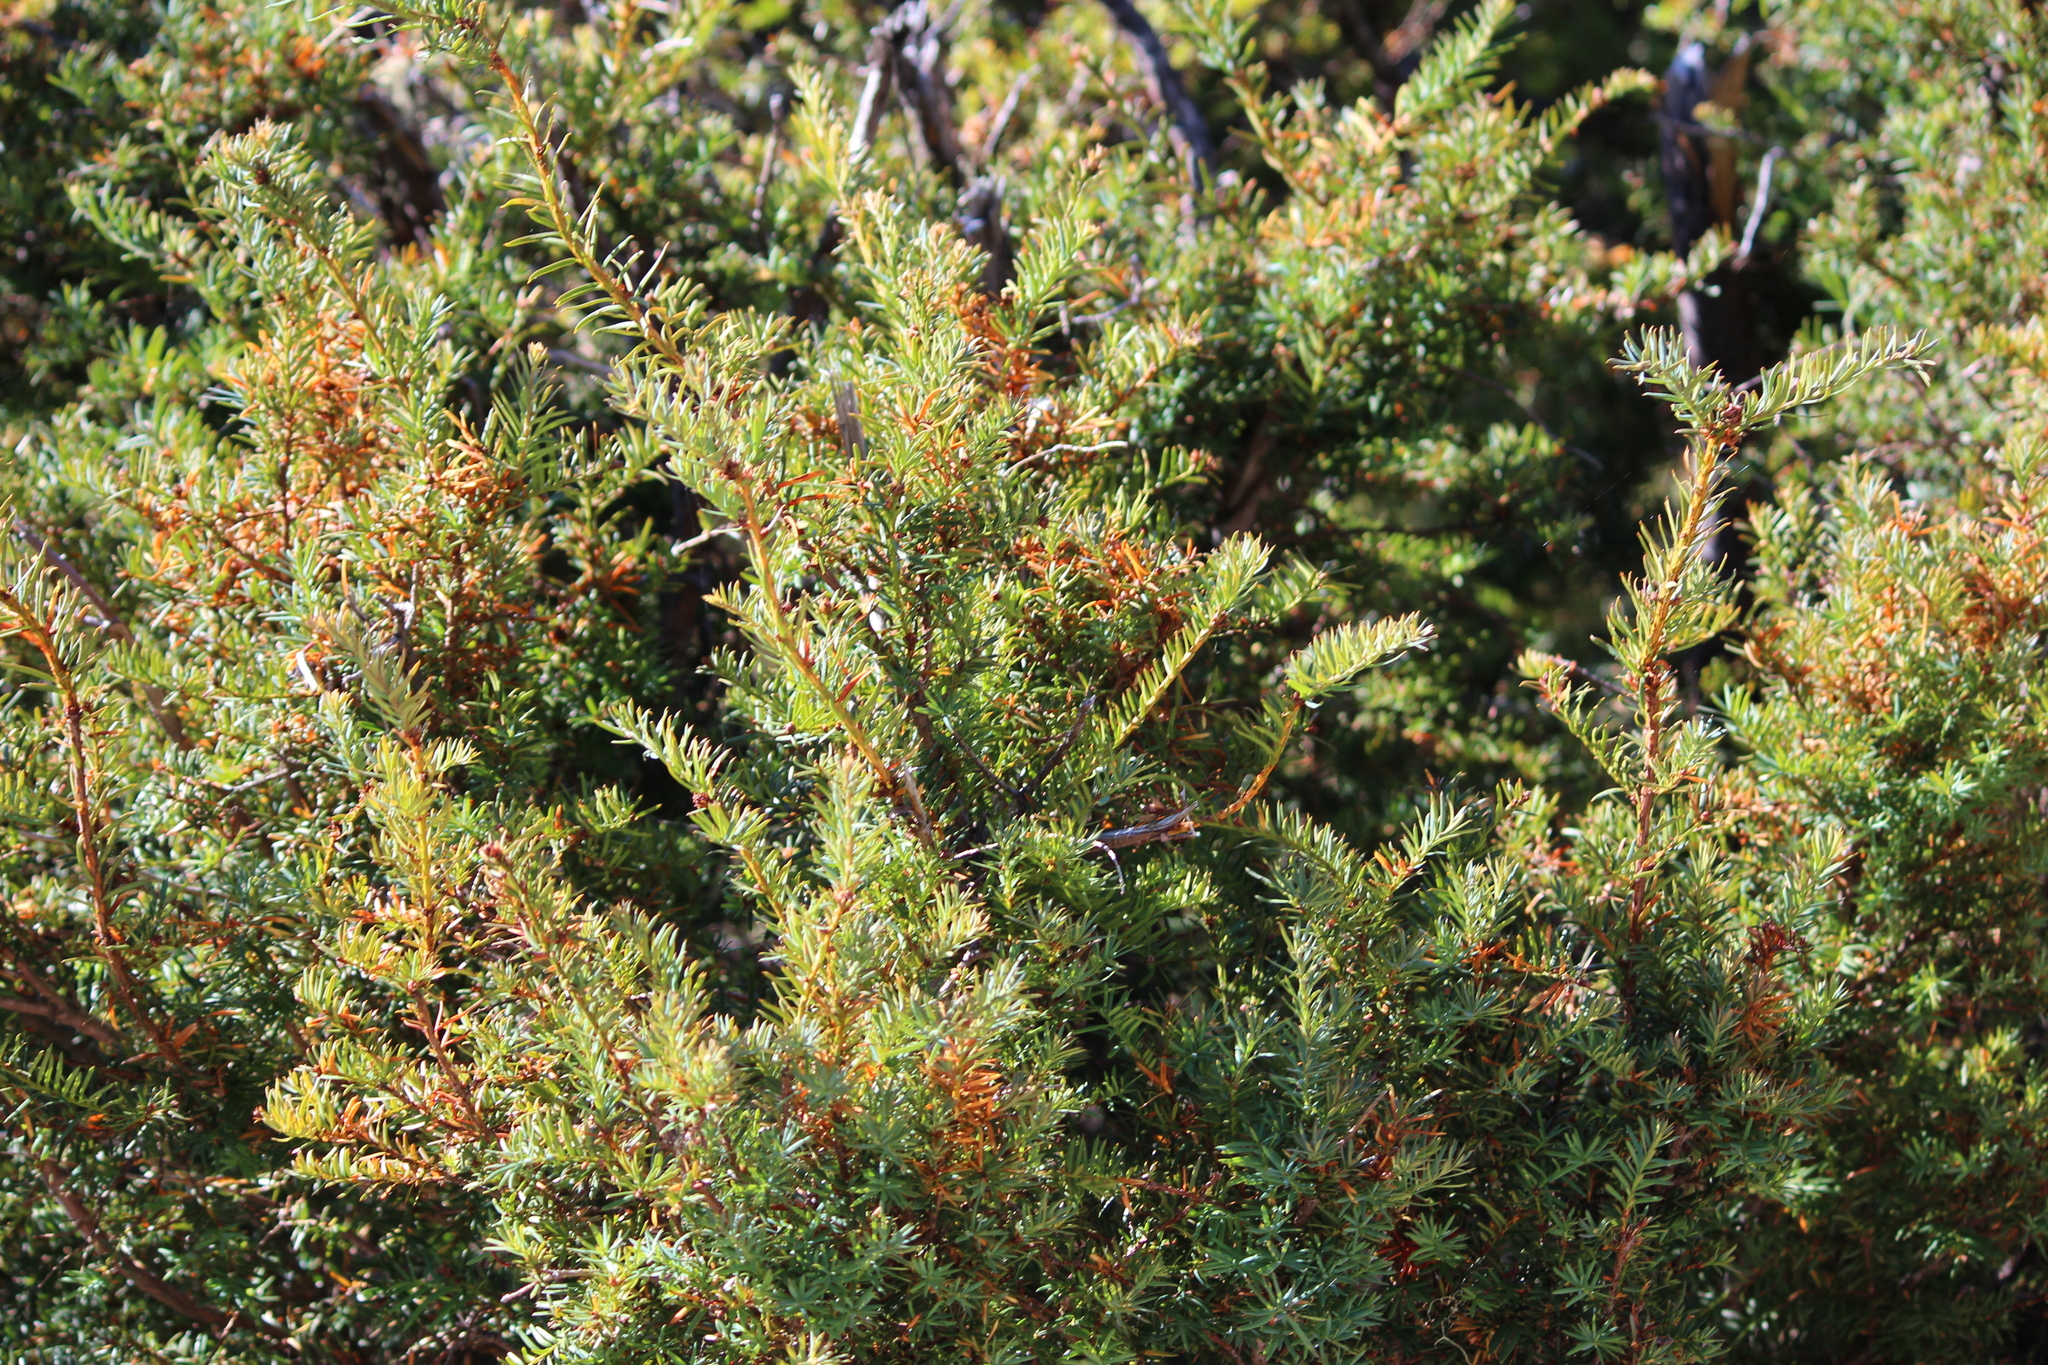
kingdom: Plantae
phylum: Tracheophyta
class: Pinopsida
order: Pinales
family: Taxaceae
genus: Taxus
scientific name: Taxus brevifolia
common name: Pacific yew
